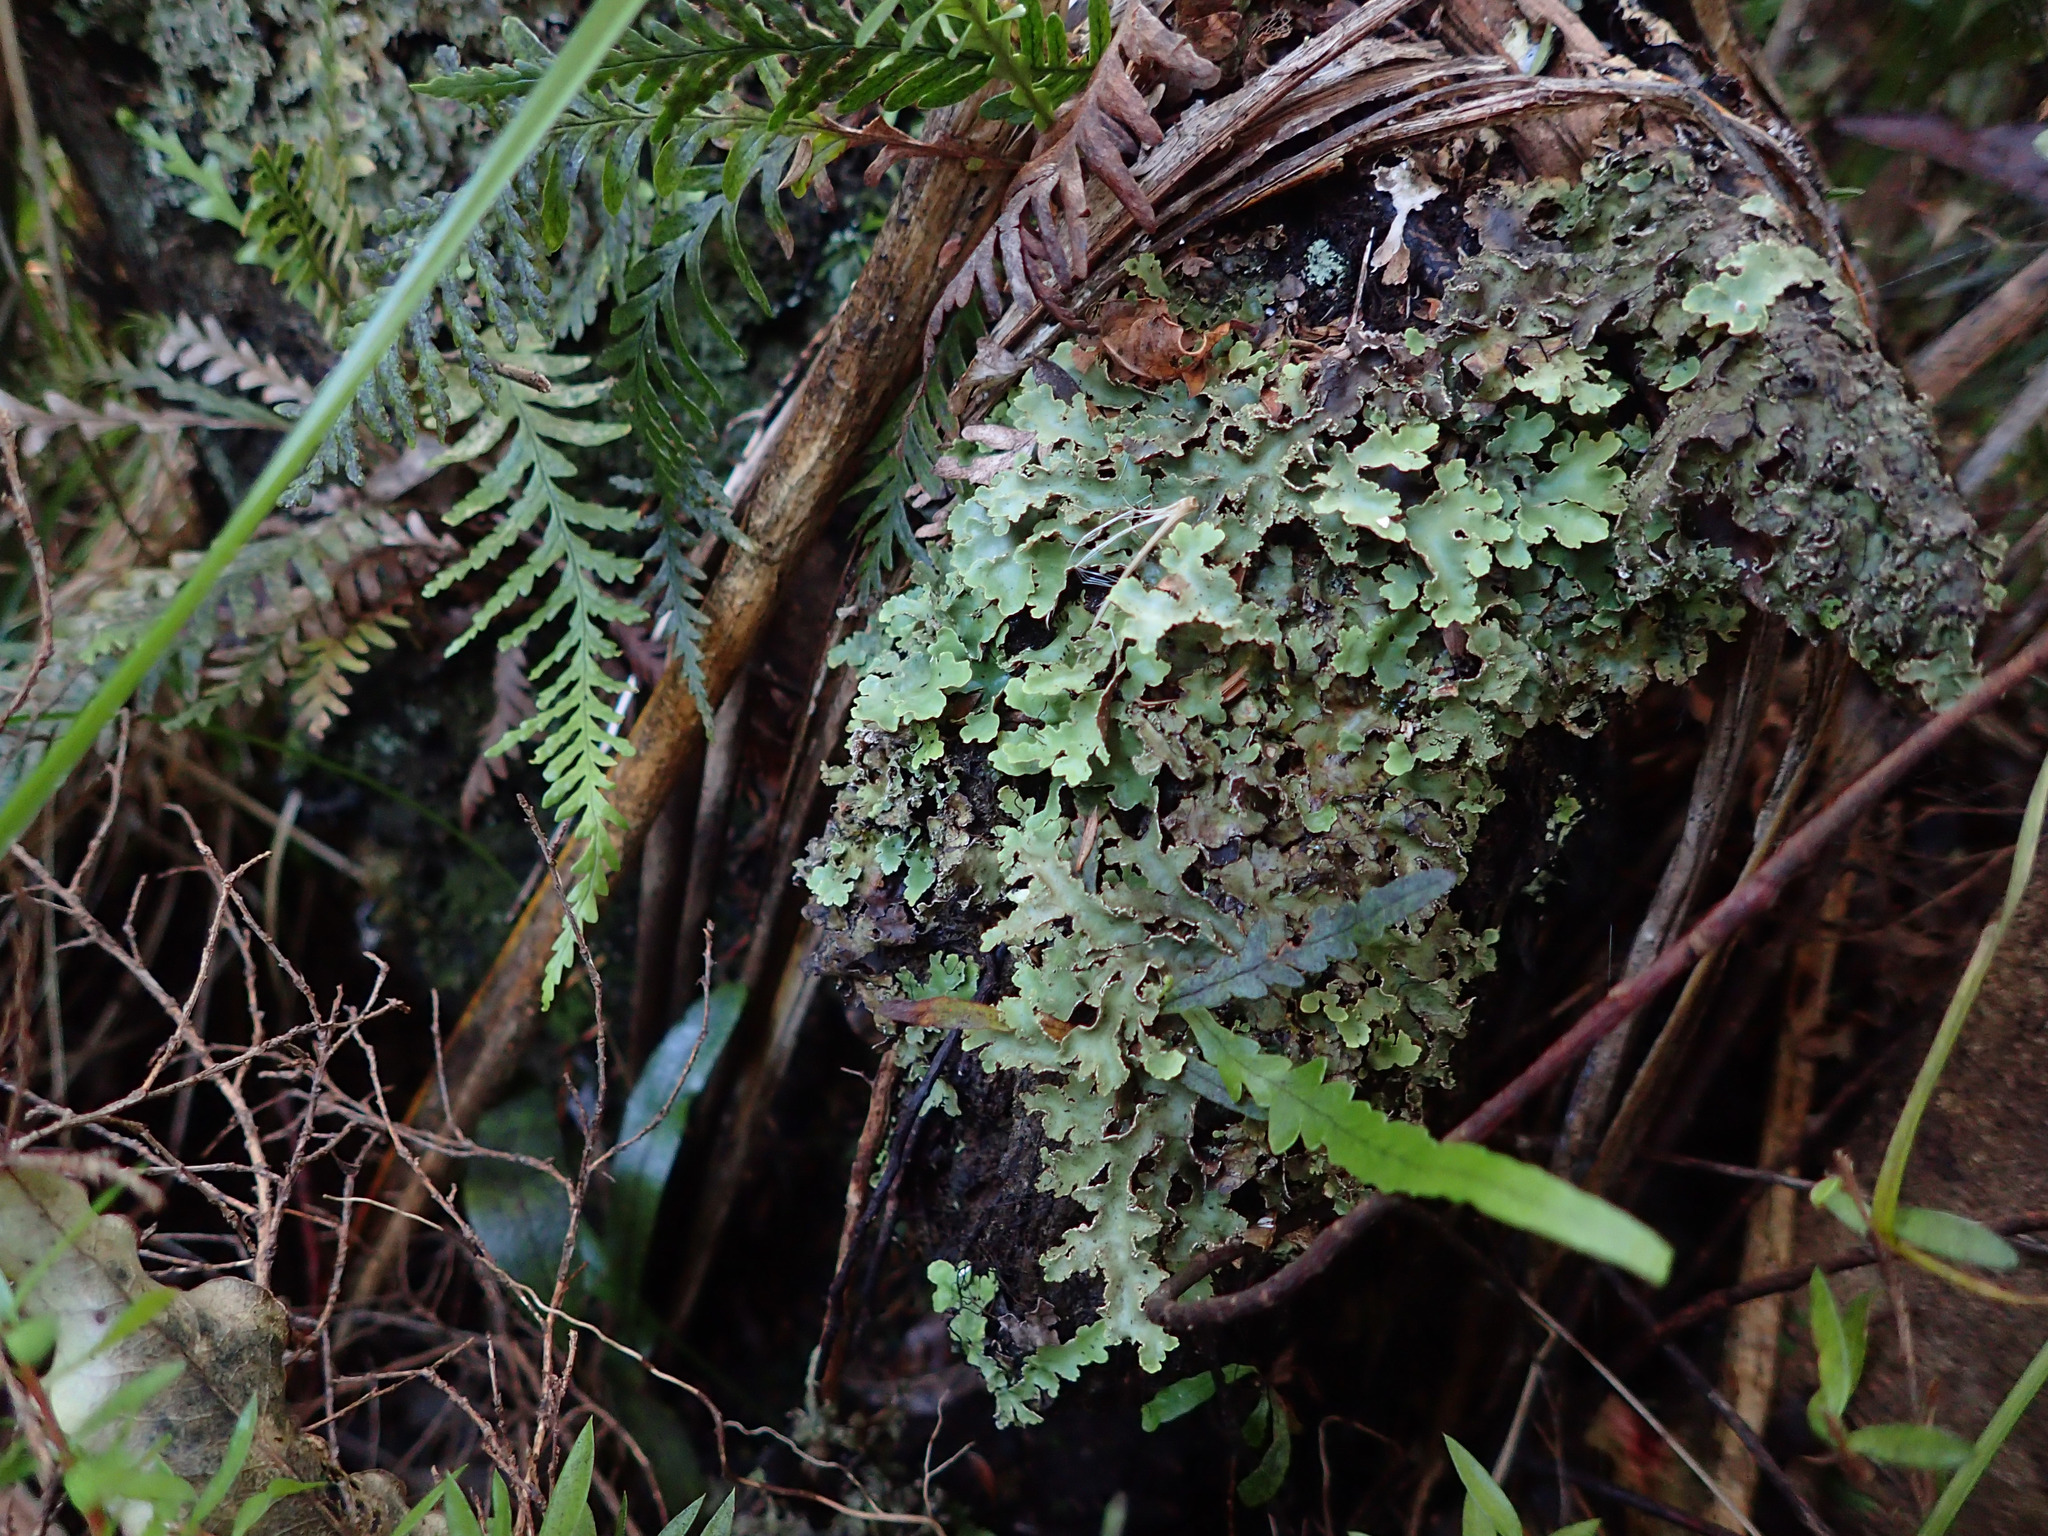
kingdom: Plantae
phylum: Tracheophyta
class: Polypodiopsida
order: Polypodiales
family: Polypodiaceae
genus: Notogrammitis
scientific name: Notogrammitis heterophylla
